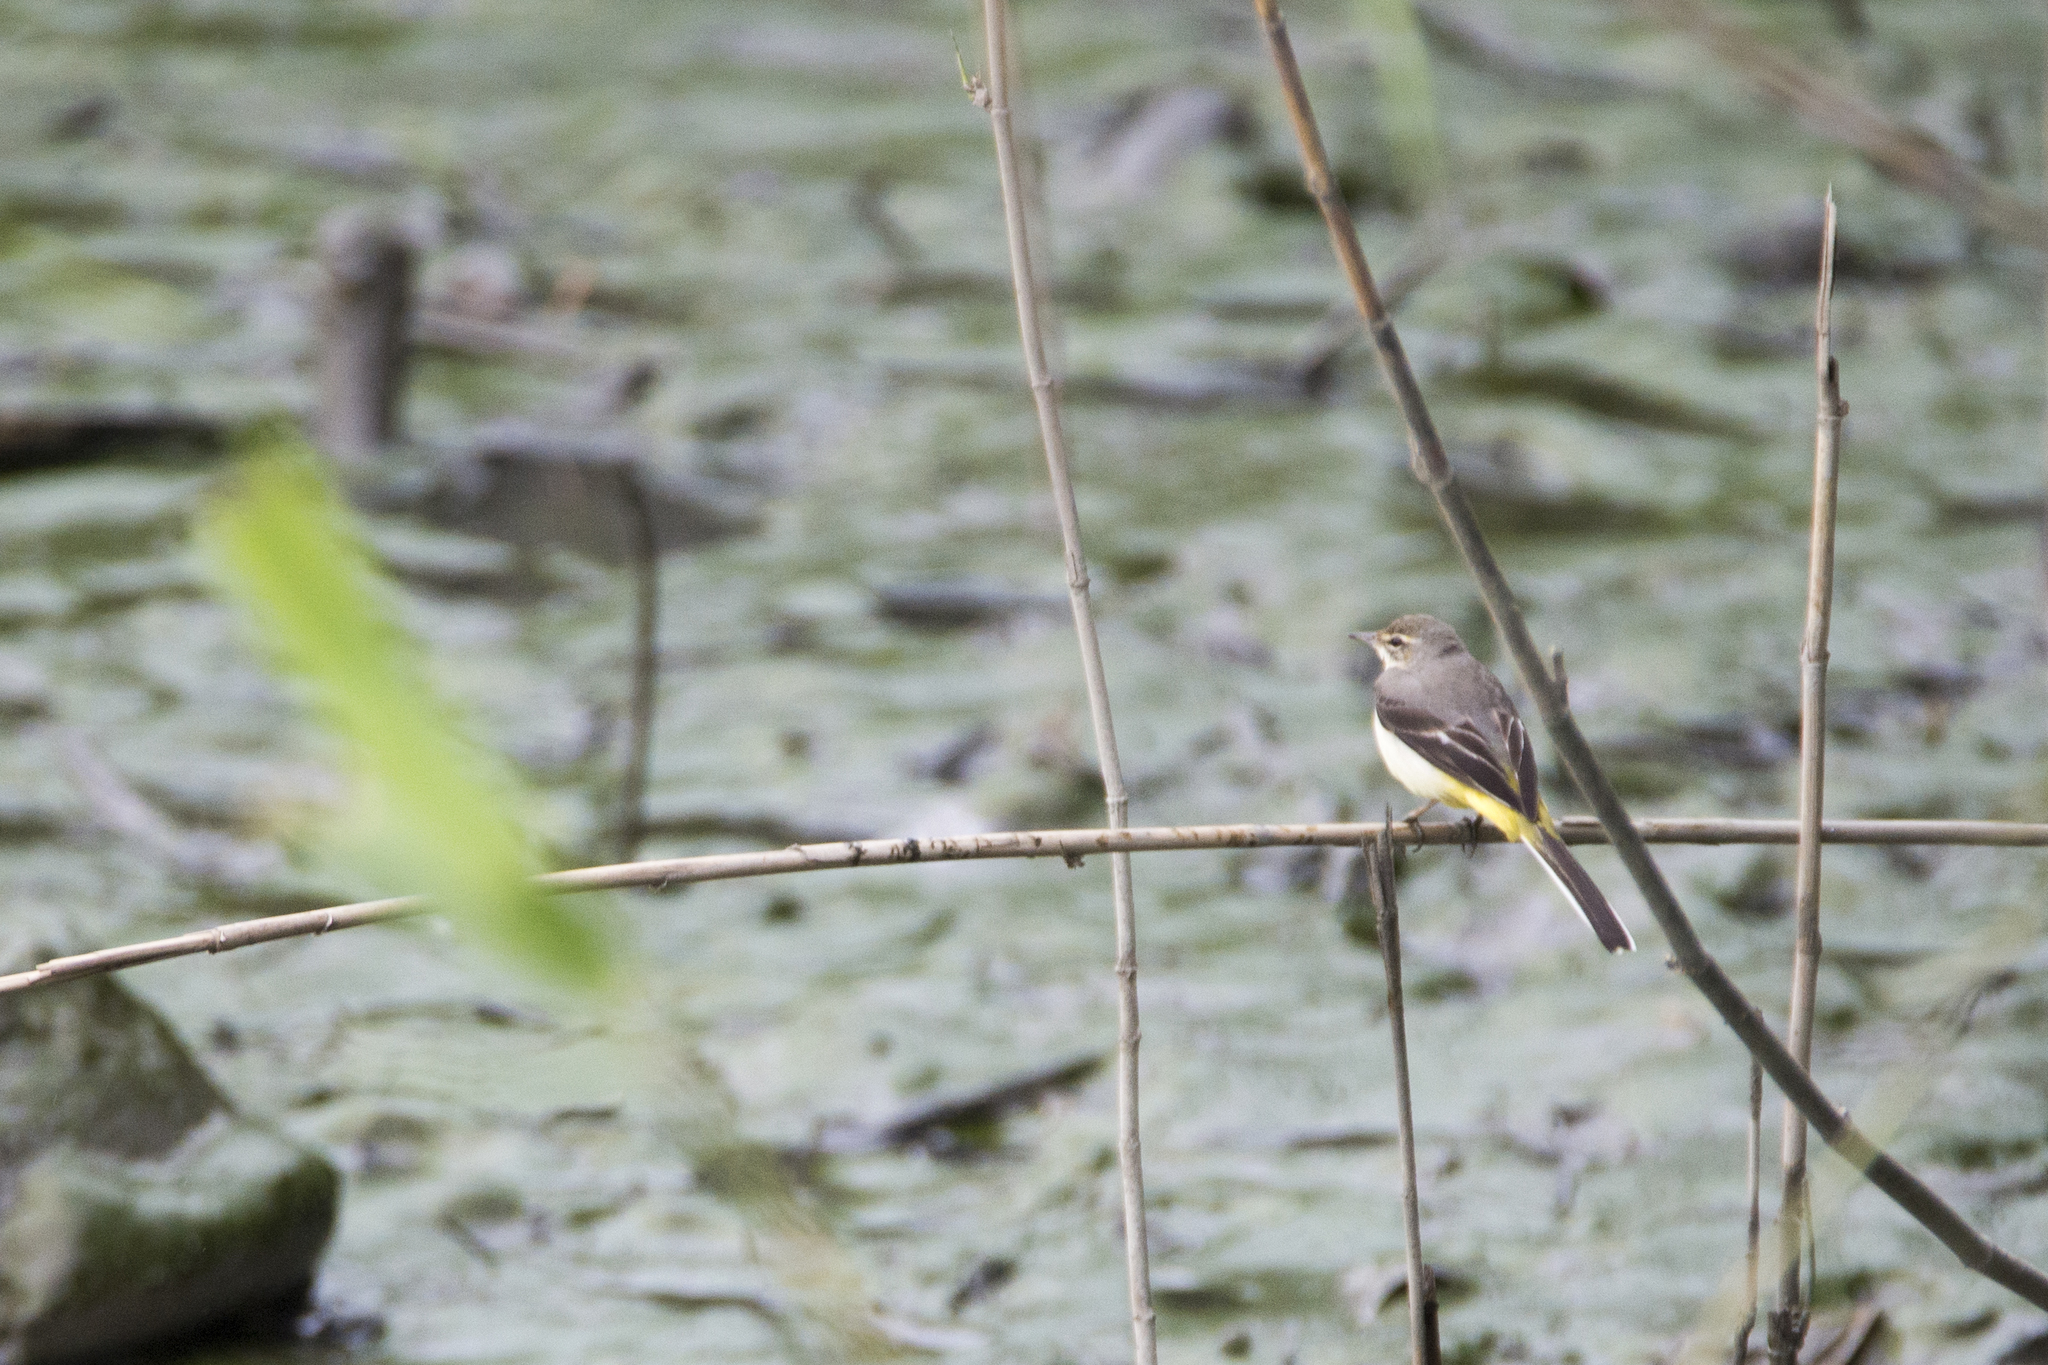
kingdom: Animalia
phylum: Chordata
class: Aves
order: Passeriformes
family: Motacillidae
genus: Motacilla
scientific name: Motacilla cinerea
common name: Grey wagtail
